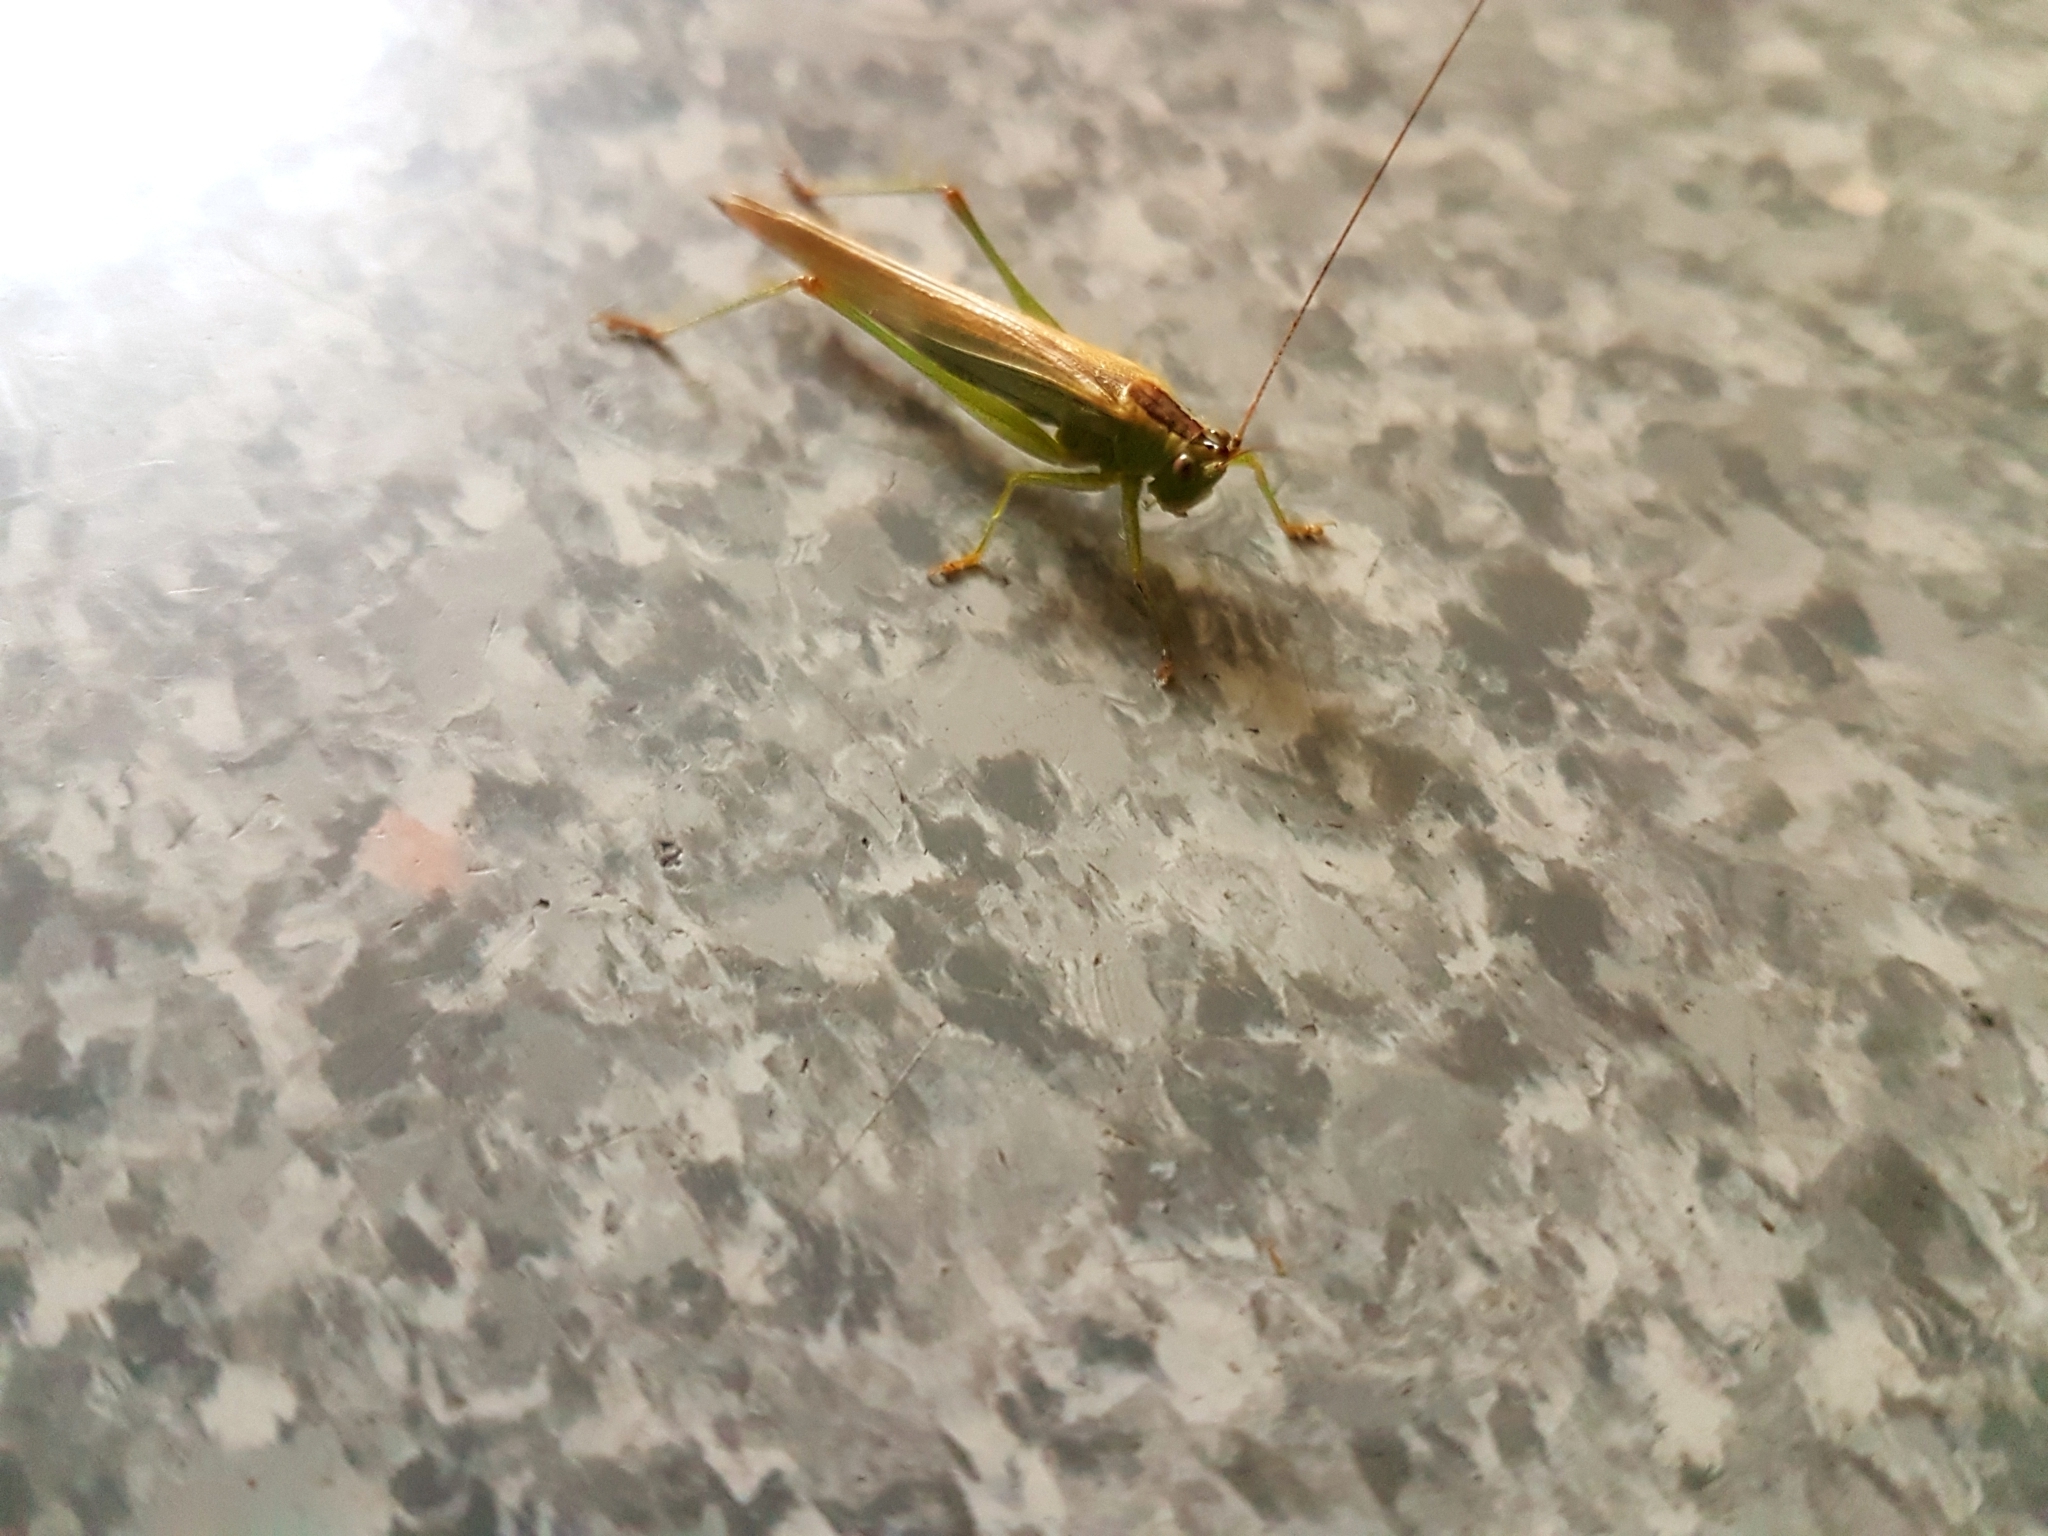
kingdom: Animalia
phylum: Arthropoda
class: Insecta
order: Orthoptera
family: Tettigoniidae
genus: Conocephalus
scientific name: Conocephalus fuscus
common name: Long-winged conehead
